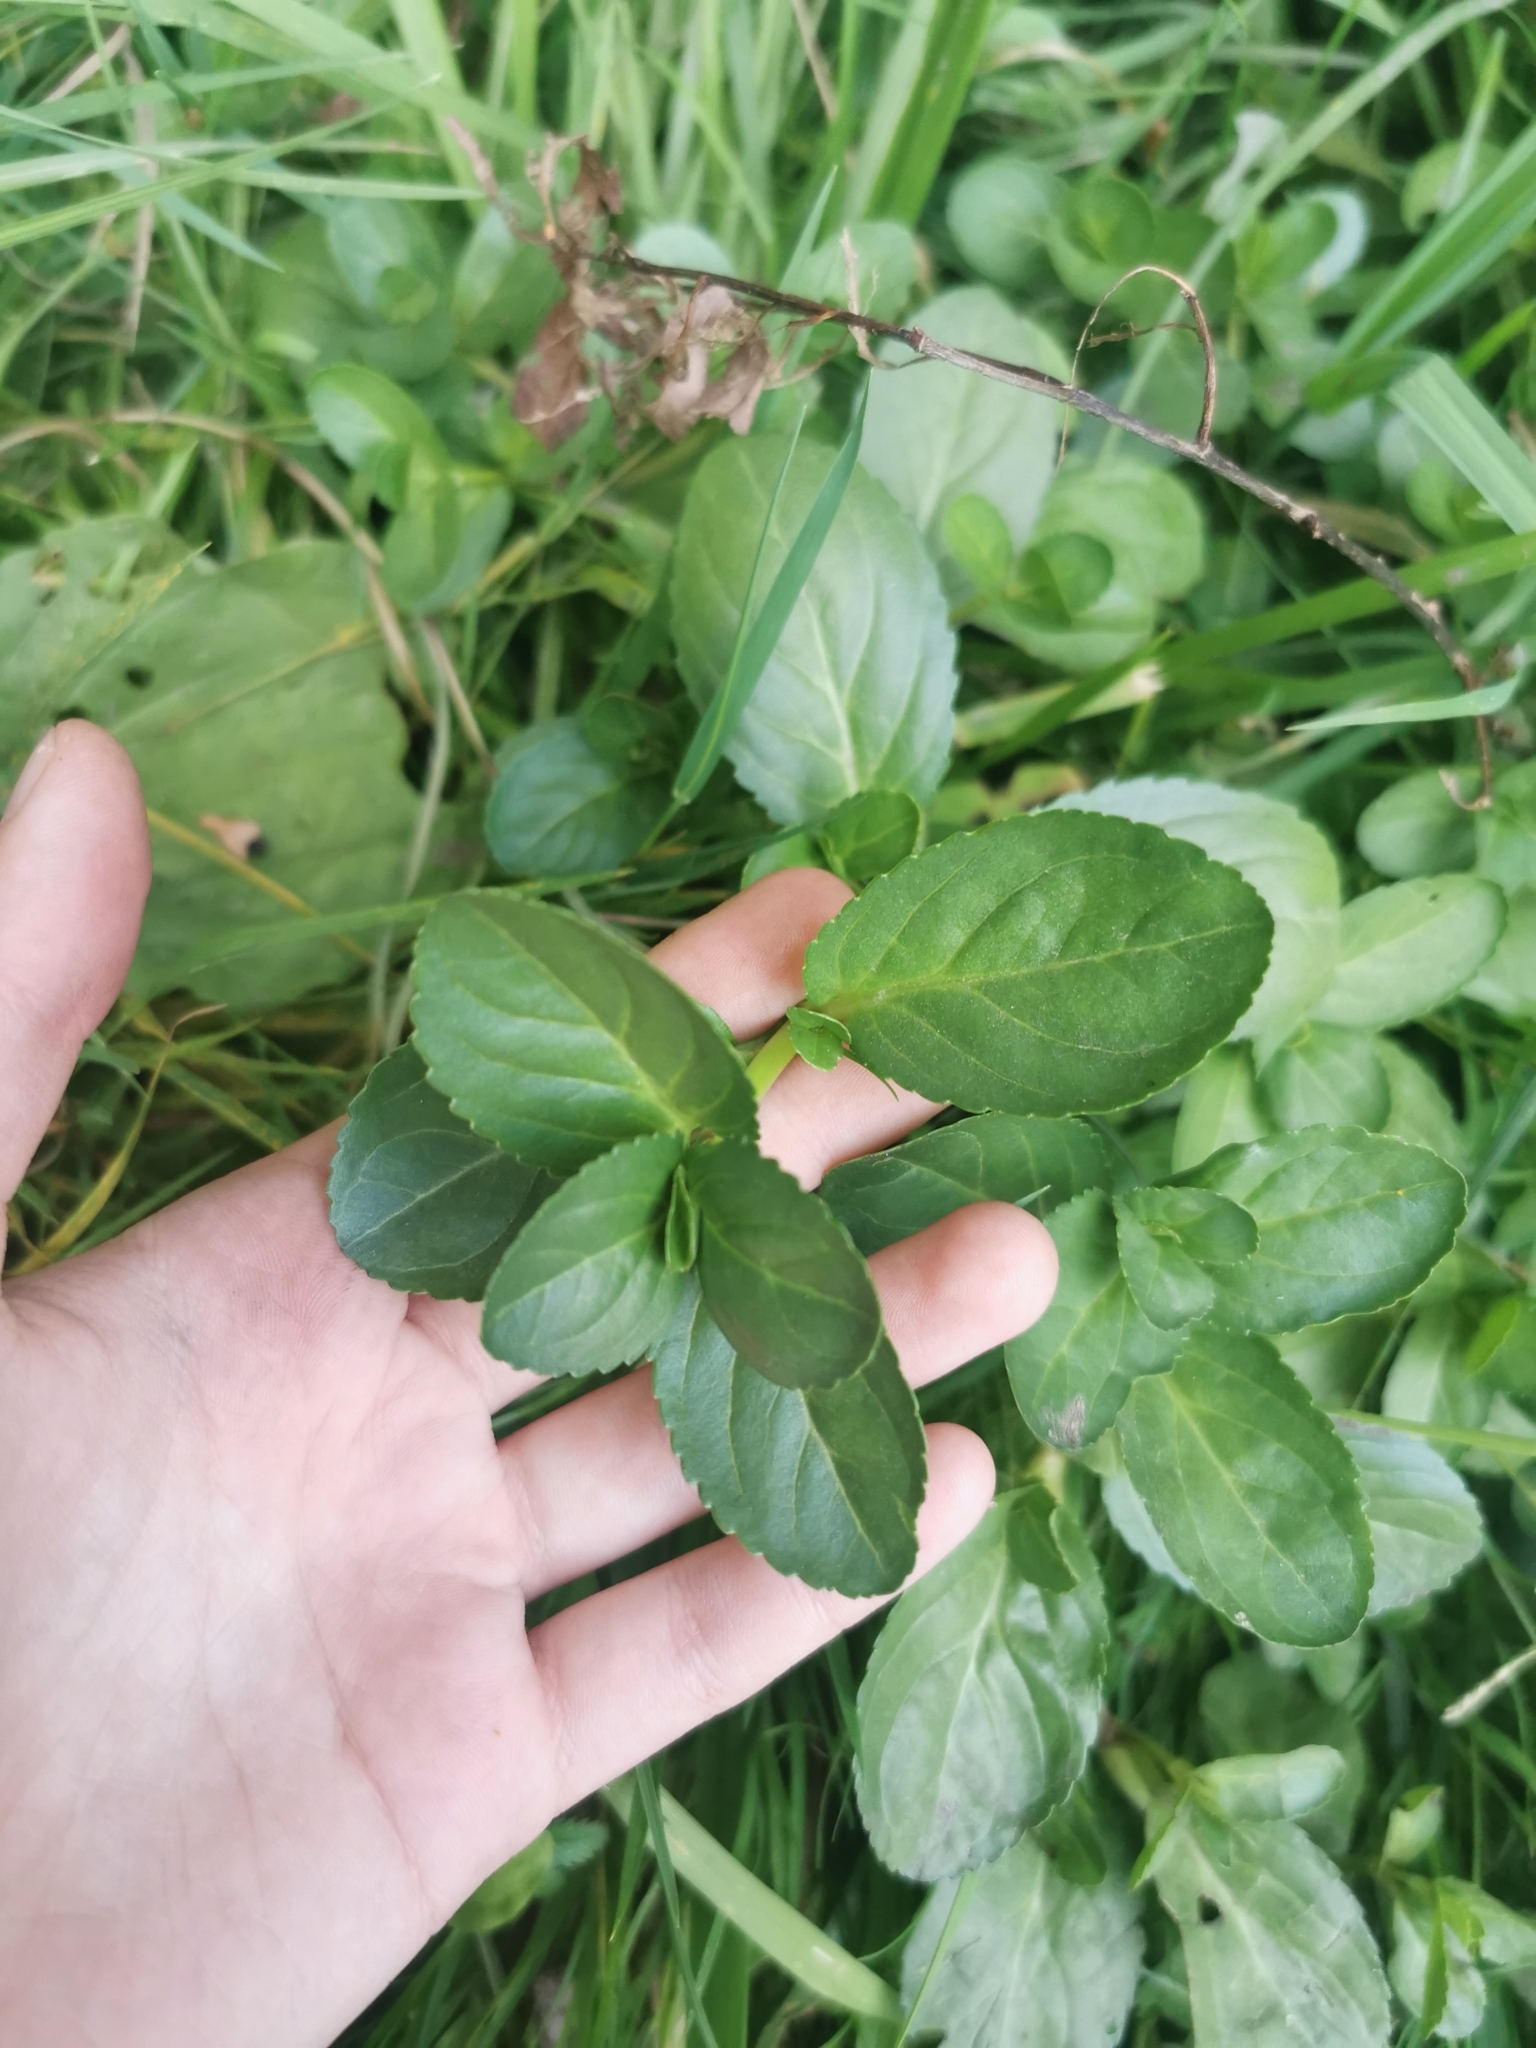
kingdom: Plantae
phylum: Tracheophyta
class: Magnoliopsida
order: Lamiales
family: Plantaginaceae
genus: Veronica
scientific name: Veronica beccabunga
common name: Brooklime
